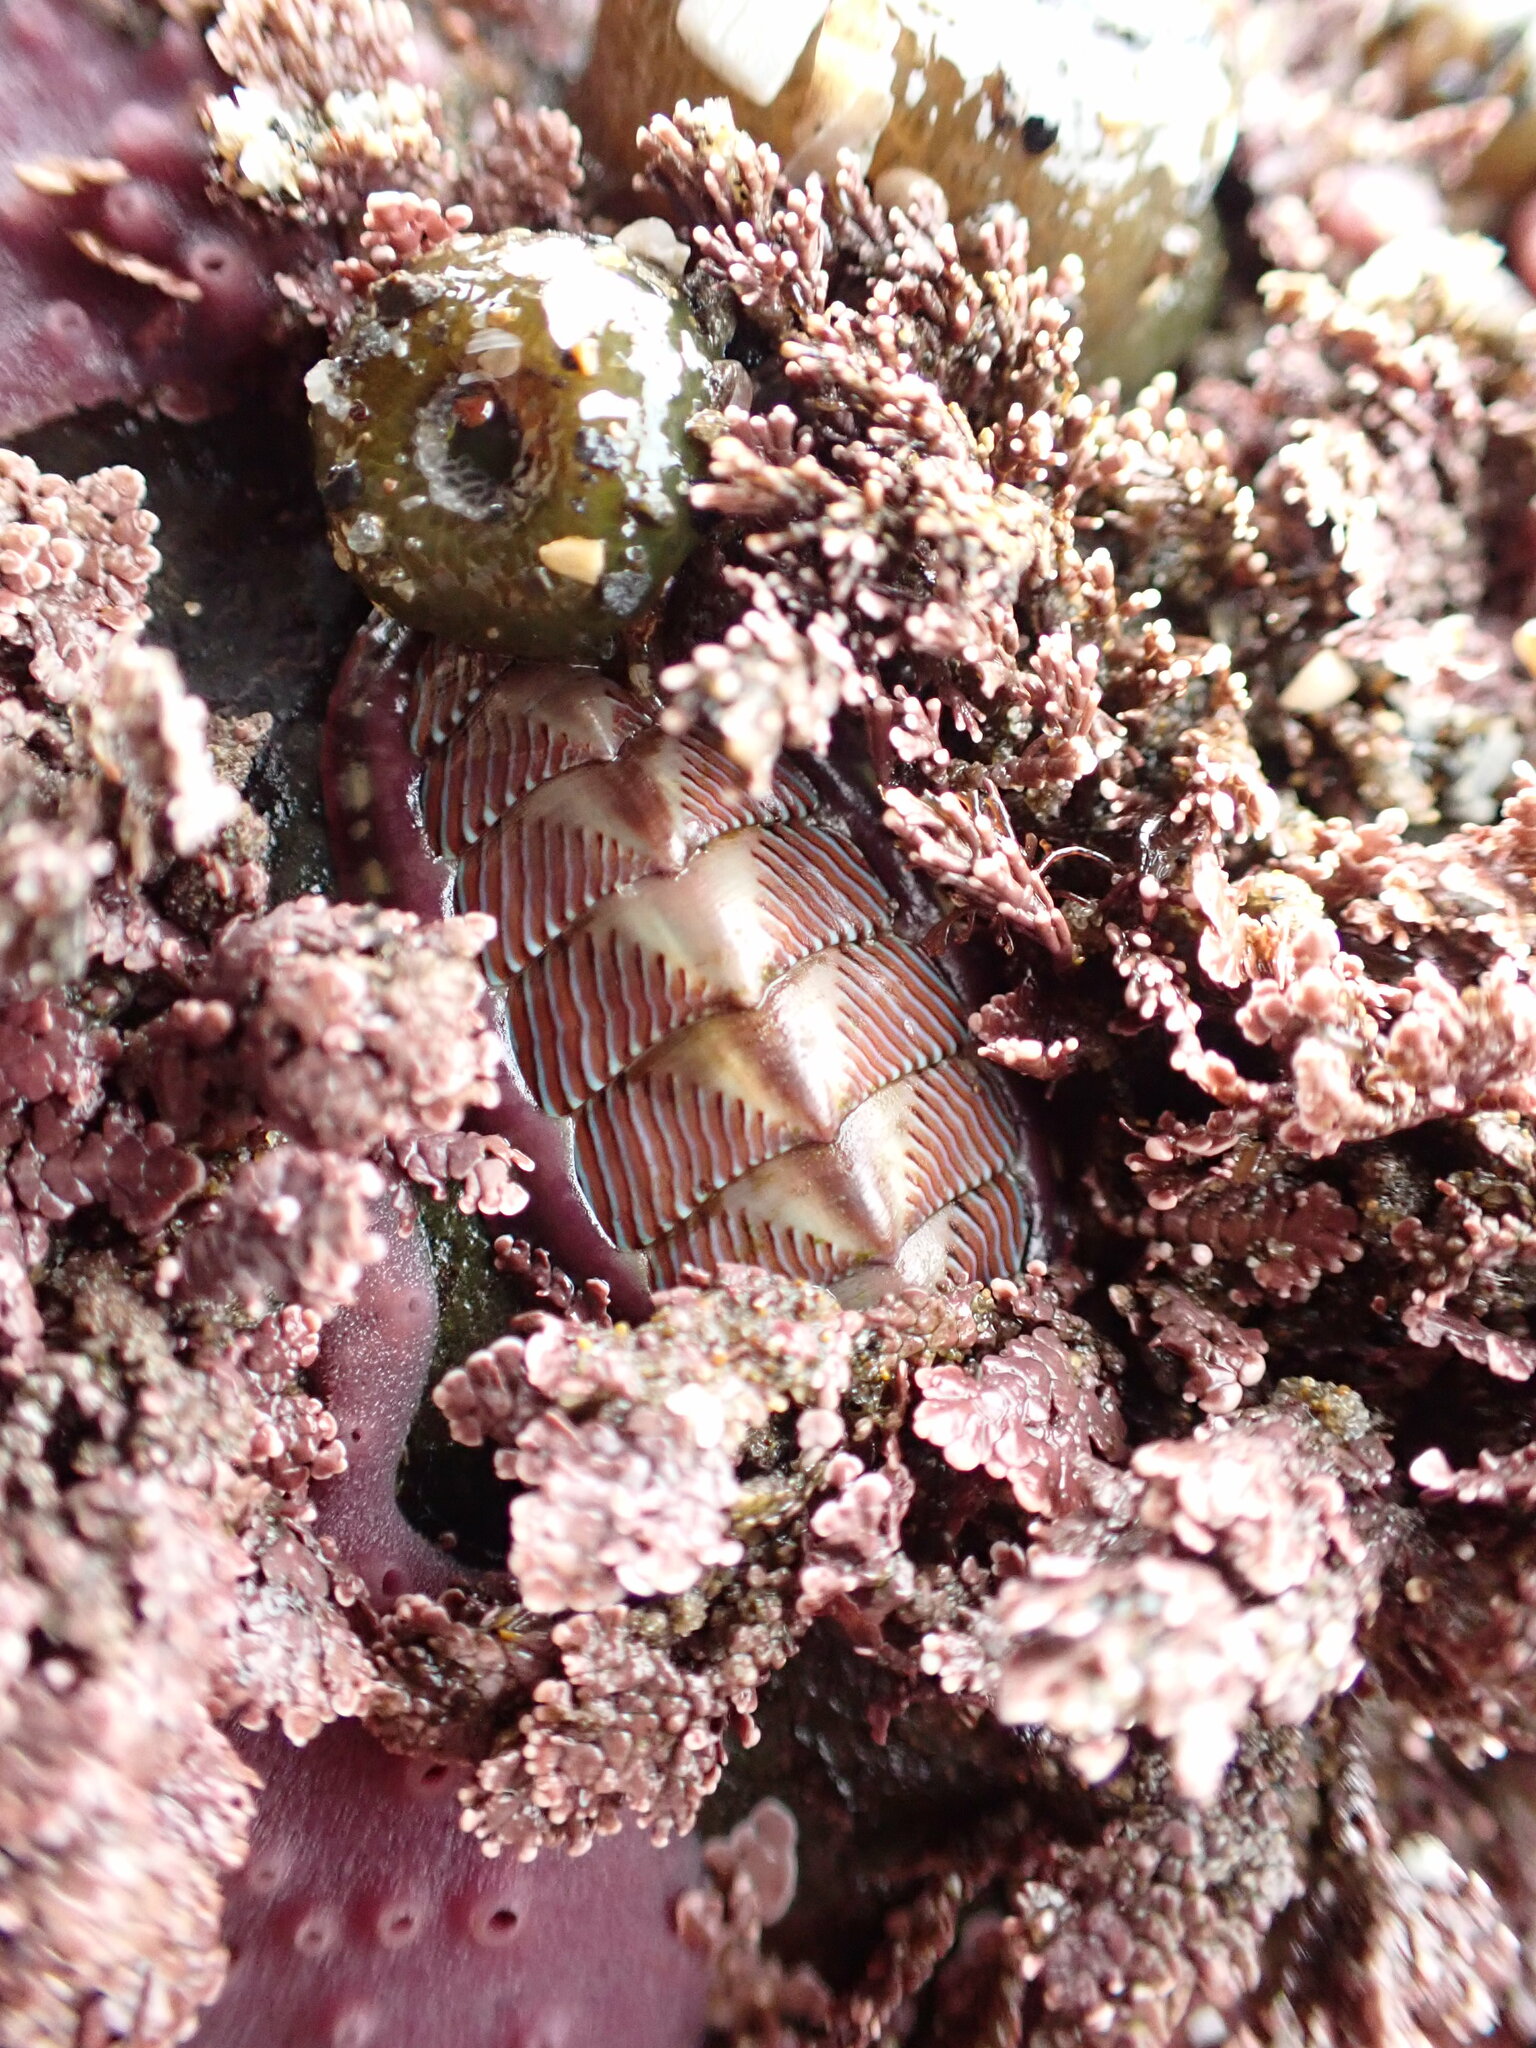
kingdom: Animalia
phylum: Mollusca
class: Polyplacophora
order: Chitonida
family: Tonicellidae
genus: Tonicella
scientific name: Tonicella lineata
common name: Lined chiton
